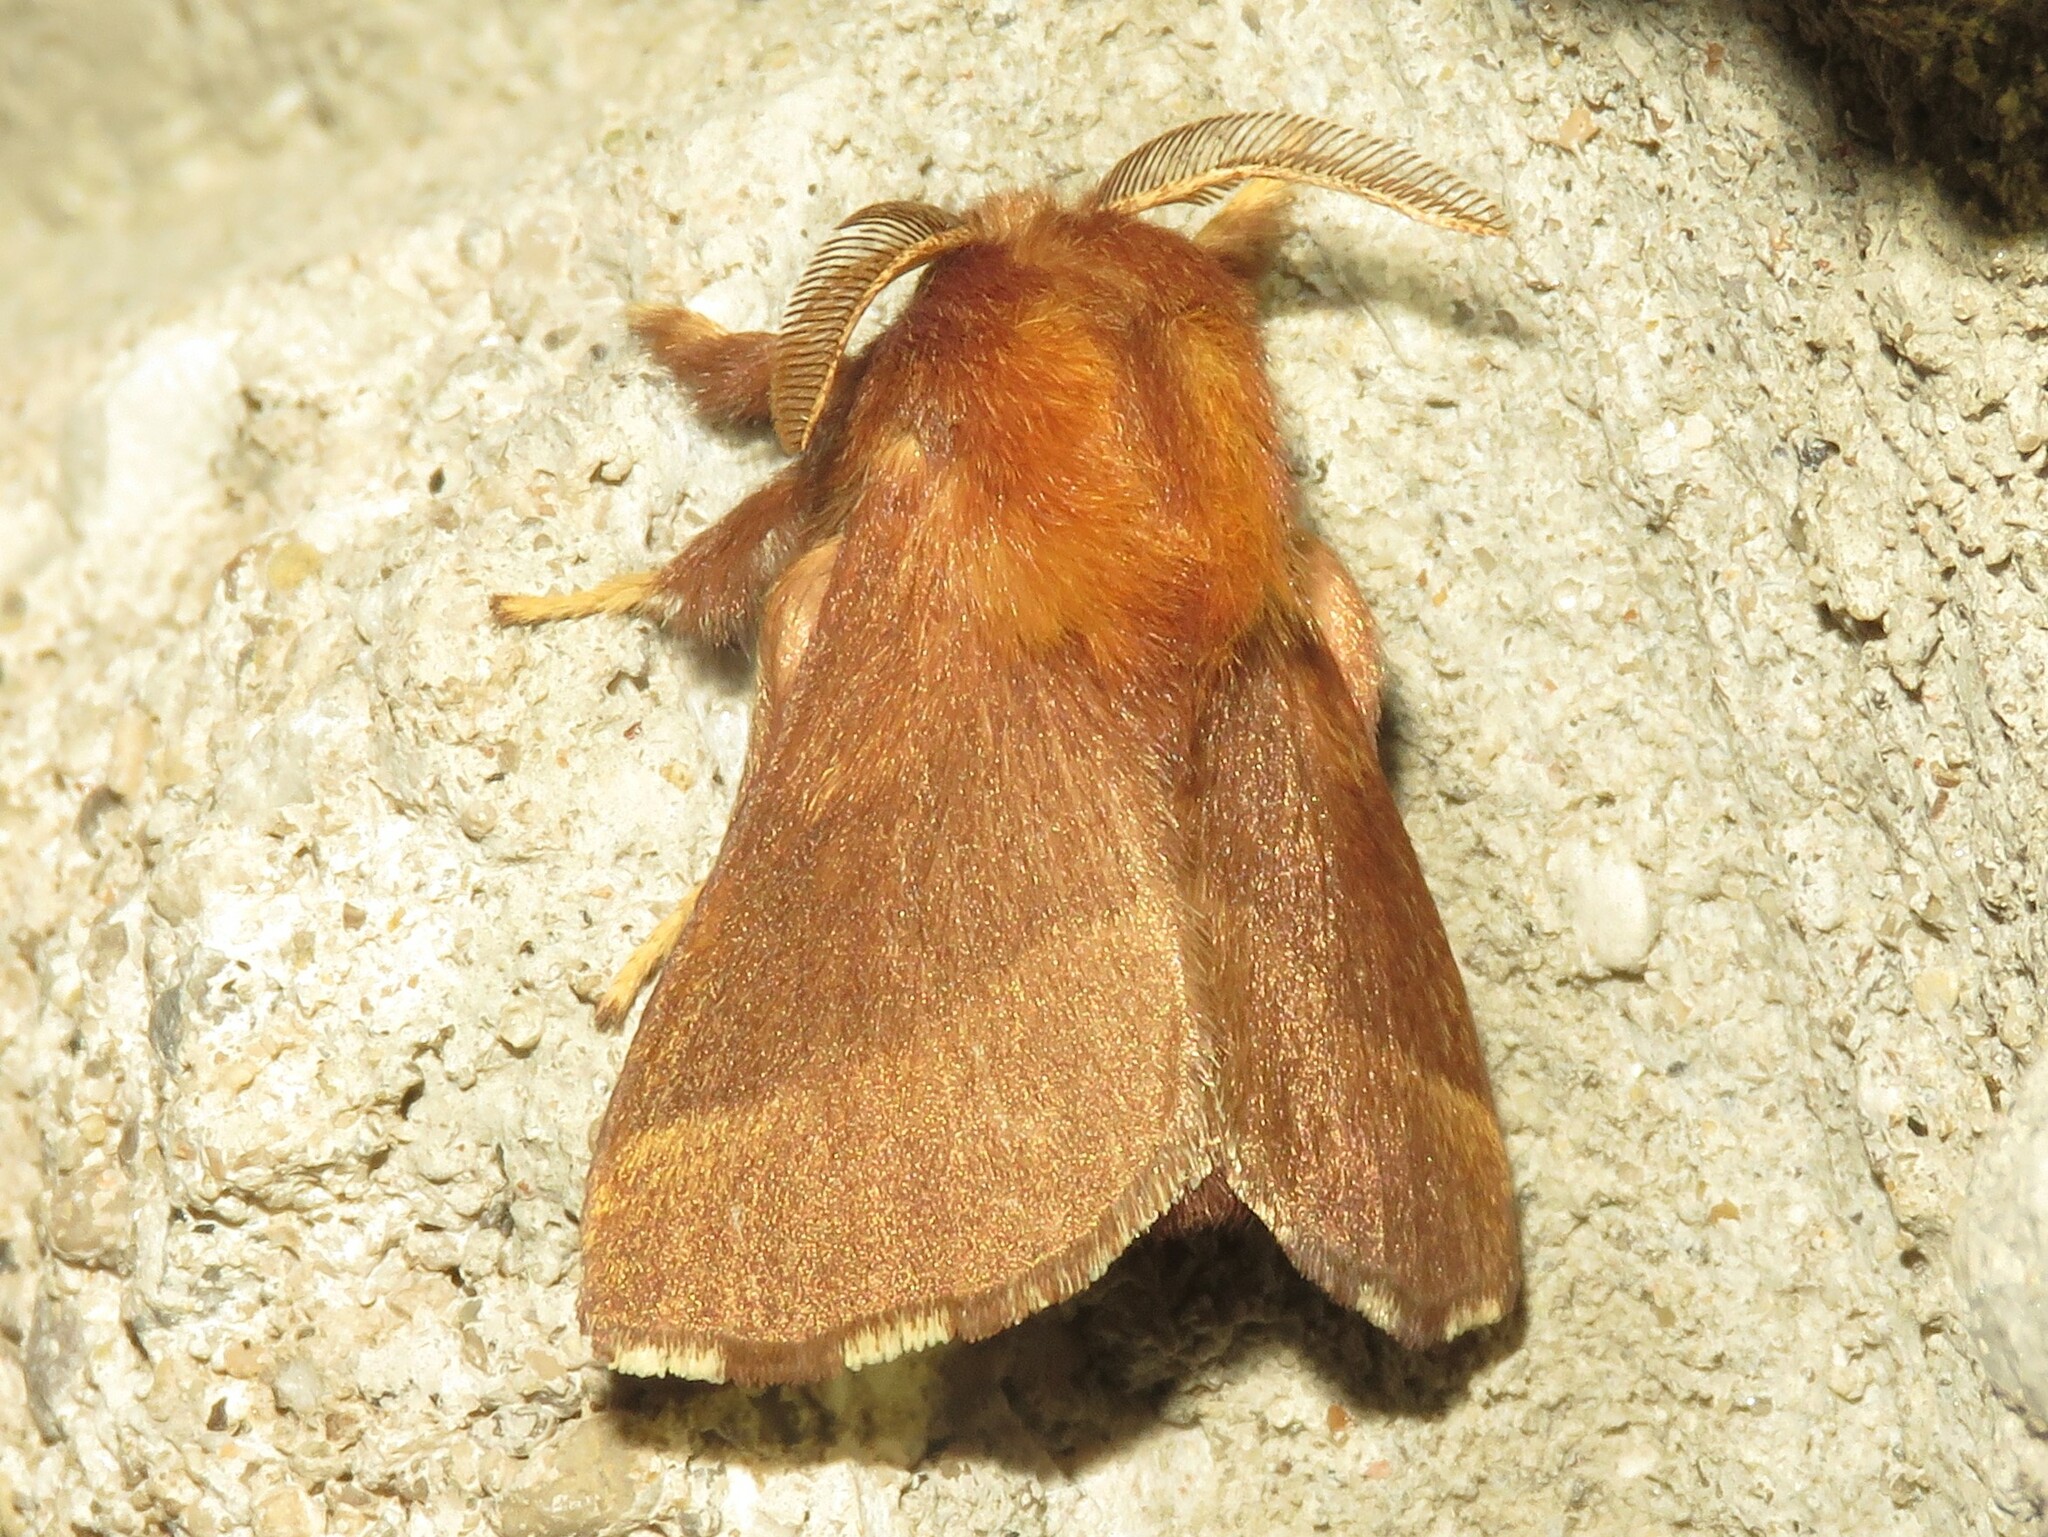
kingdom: Animalia
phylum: Arthropoda
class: Insecta
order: Lepidoptera
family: Lasiocampidae
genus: Malacosoma
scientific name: Malacosoma disstria
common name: Forest tent caterpillar
